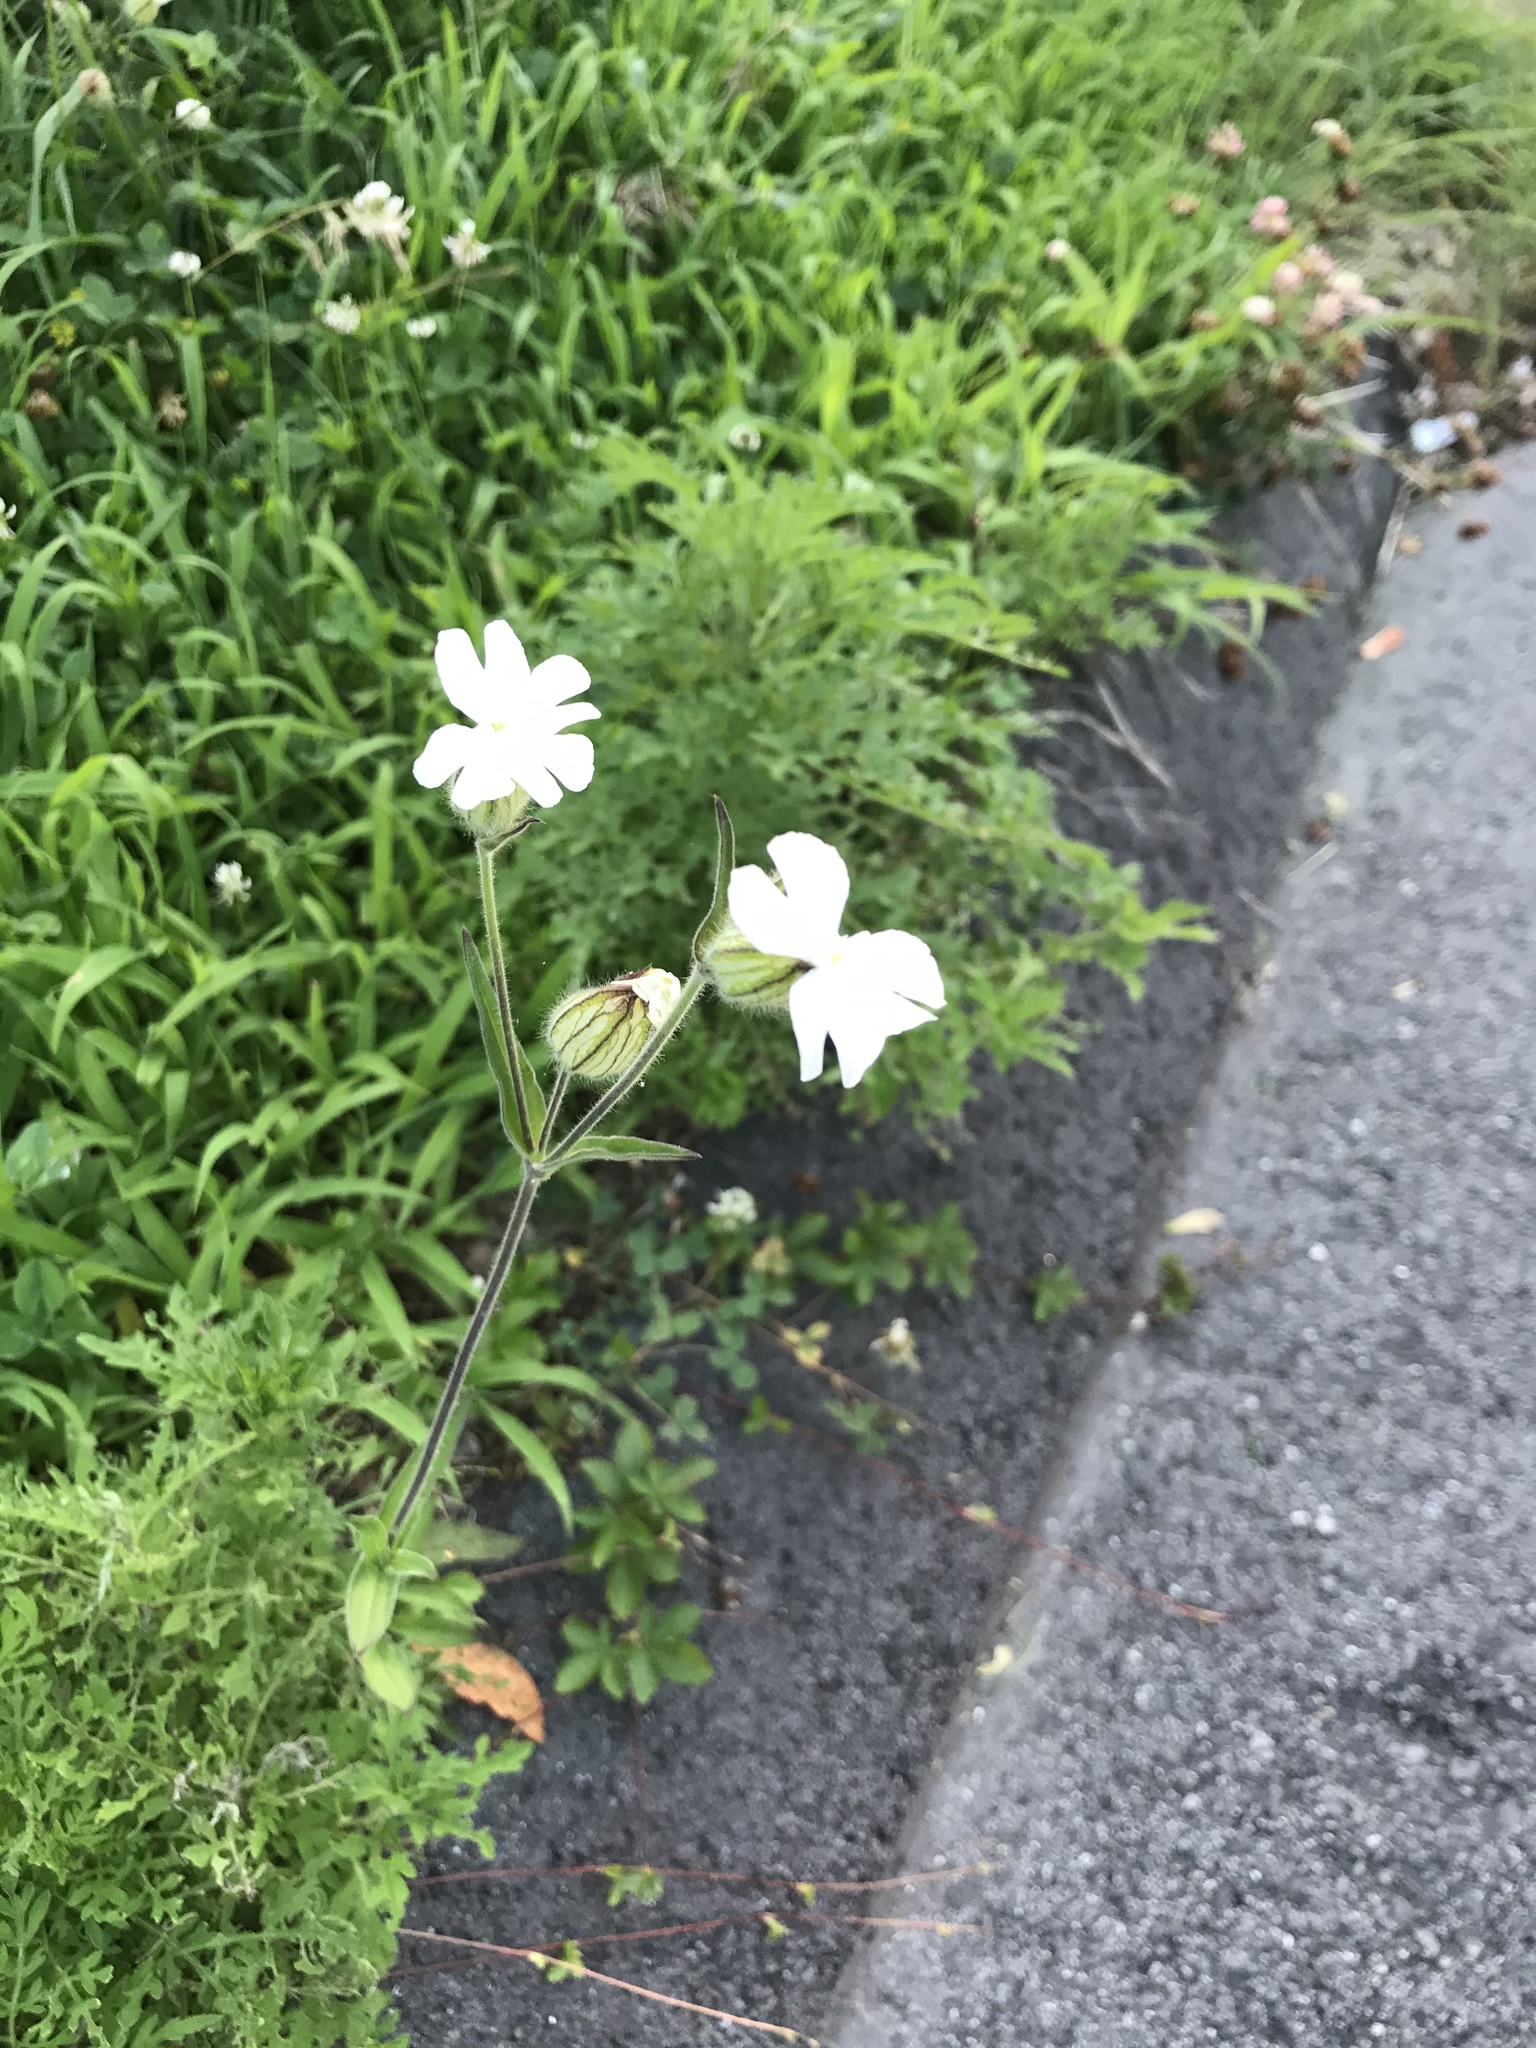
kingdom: Plantae
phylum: Tracheophyta
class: Magnoliopsida
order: Caryophyllales
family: Caryophyllaceae
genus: Silene
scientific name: Silene latifolia
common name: White campion
